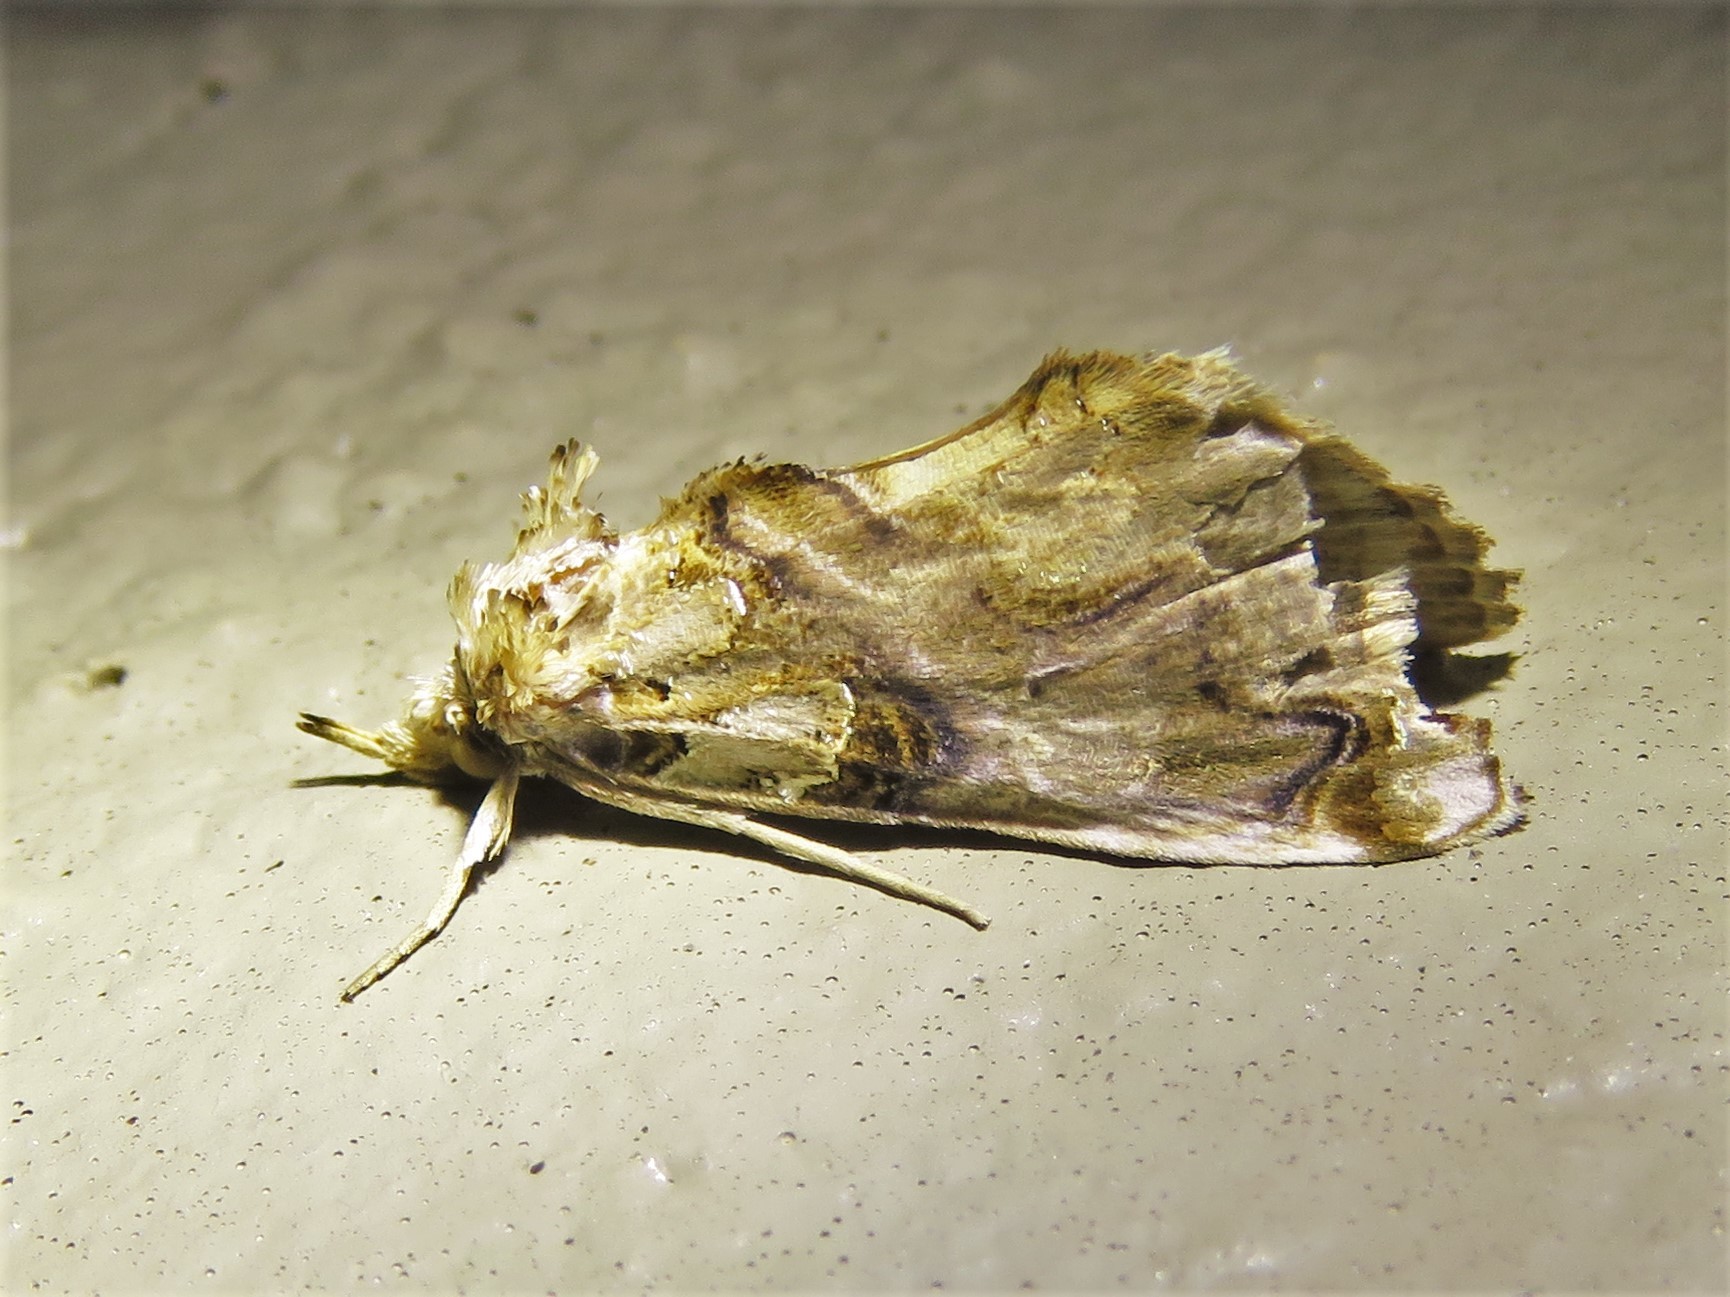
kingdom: Animalia
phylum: Arthropoda
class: Insecta
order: Lepidoptera
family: Erebidae
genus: Plusiodonta
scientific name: Plusiodonta compressipalpis
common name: Moonseed moth
